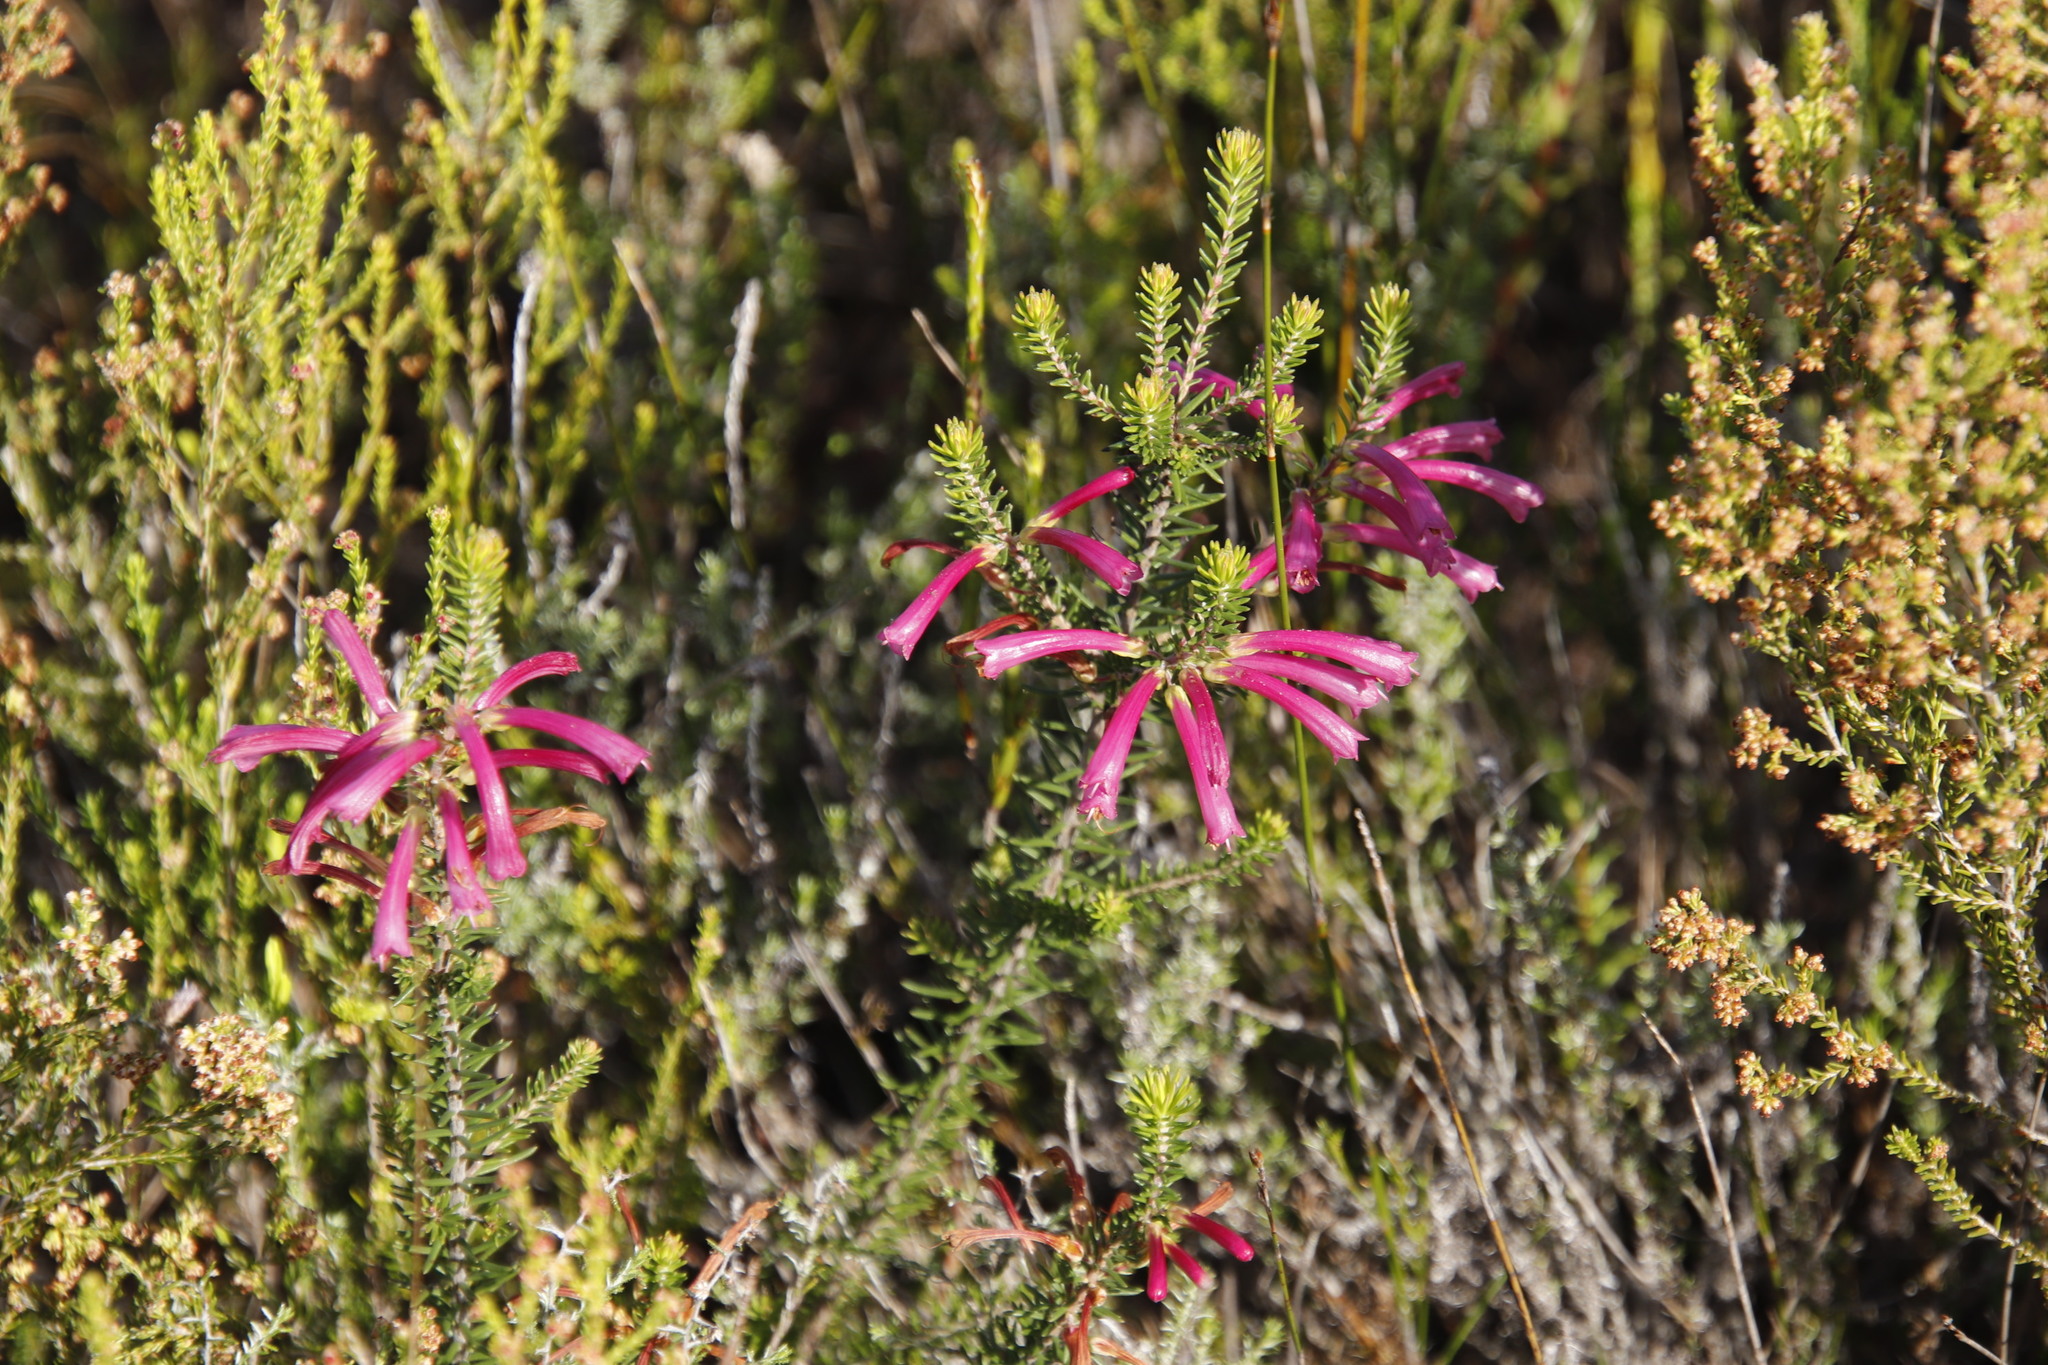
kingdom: Plantae
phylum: Tracheophyta
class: Magnoliopsida
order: Ericales
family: Ericaceae
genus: Erica
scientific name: Erica abietina
